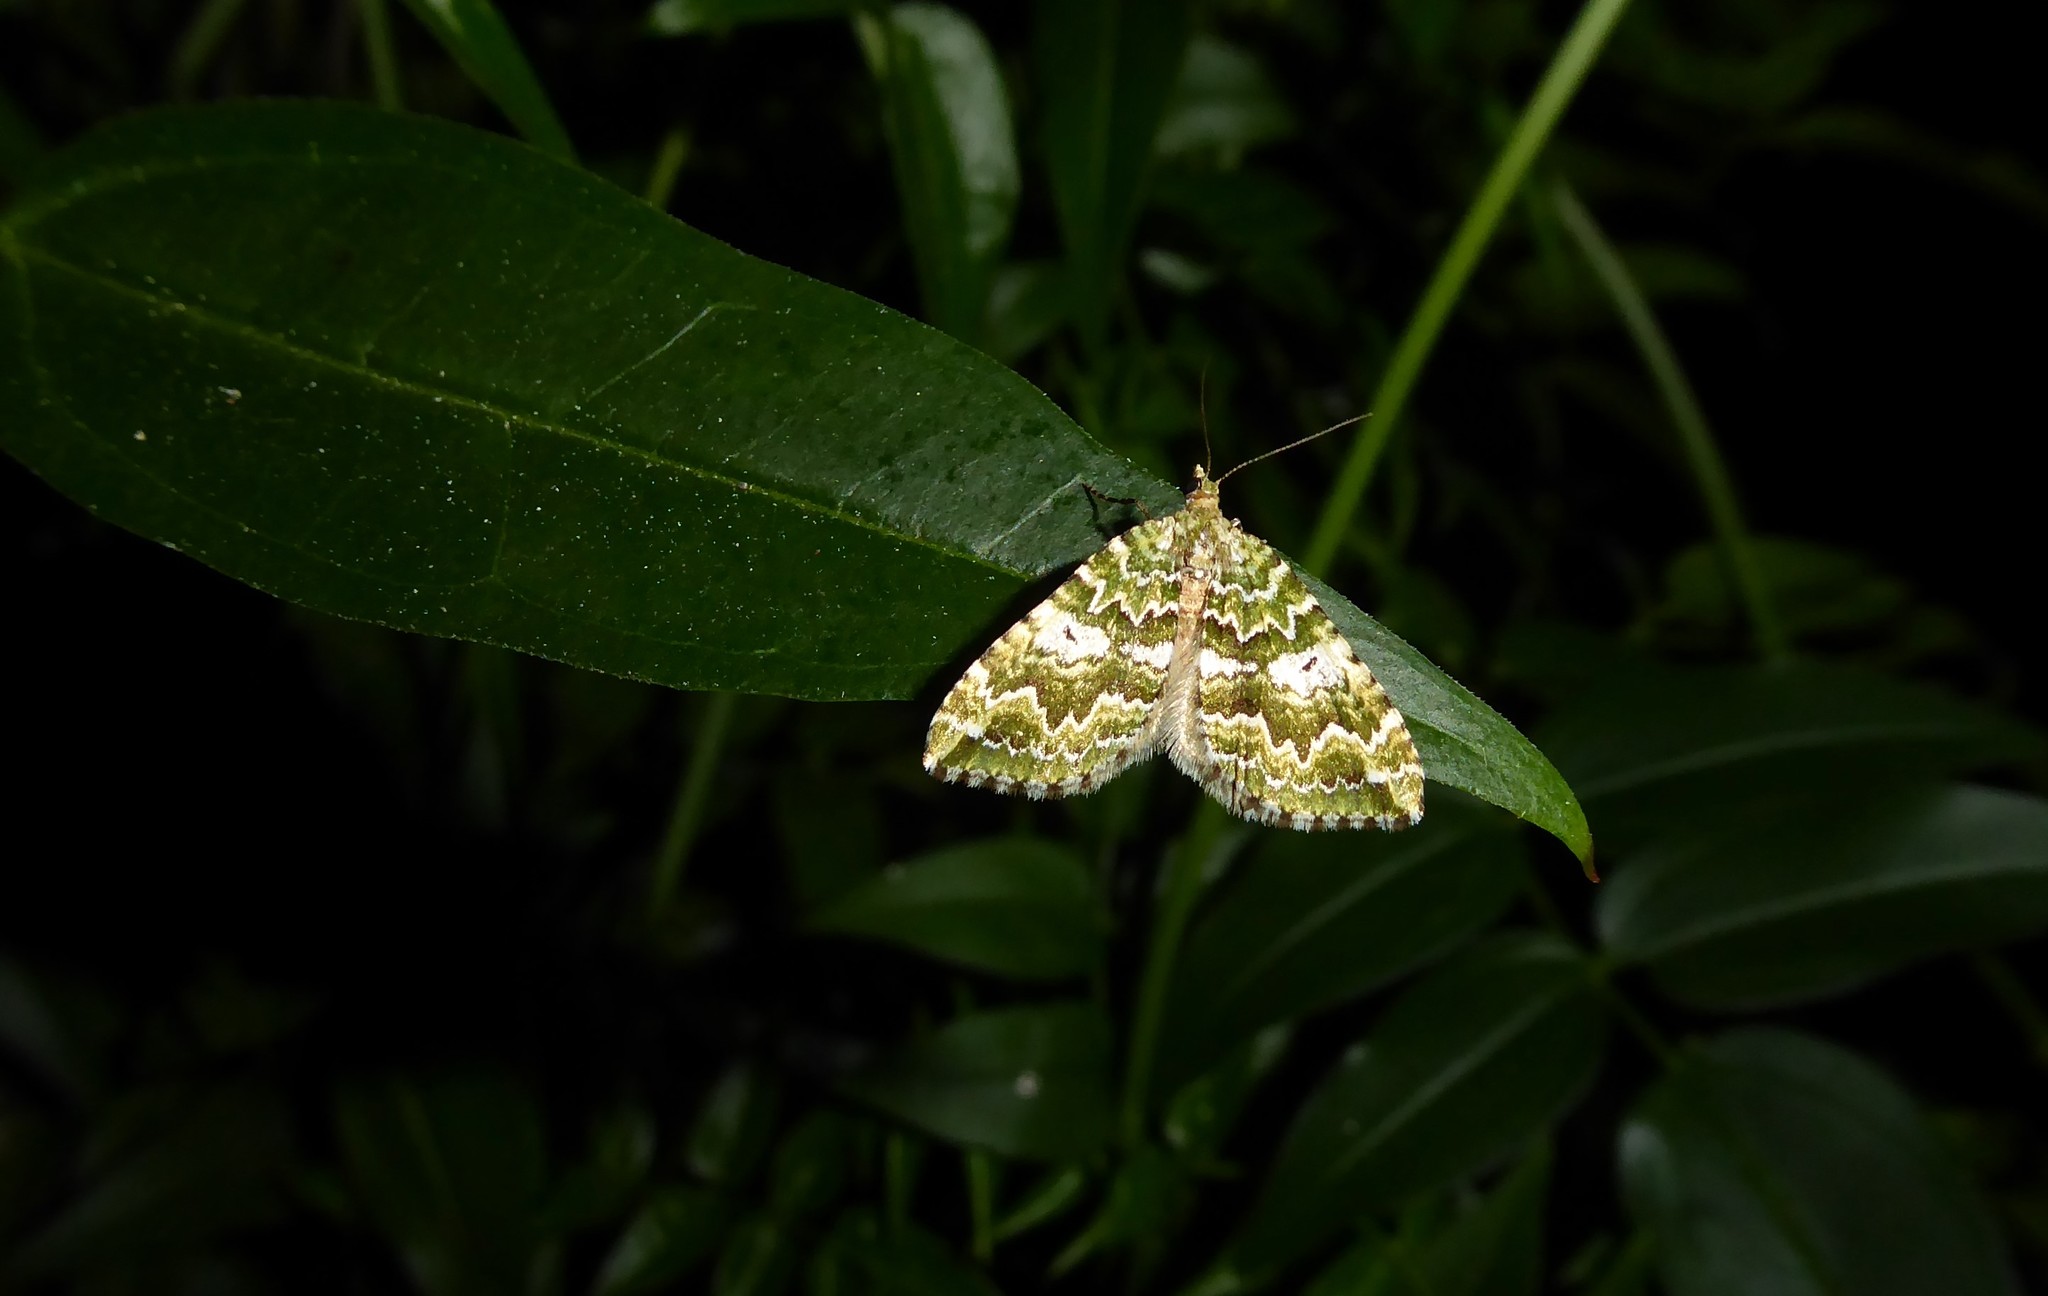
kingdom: Animalia
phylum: Arthropoda
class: Insecta
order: Lepidoptera
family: Geometridae
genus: Asaphodes
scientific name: Asaphodes beata
